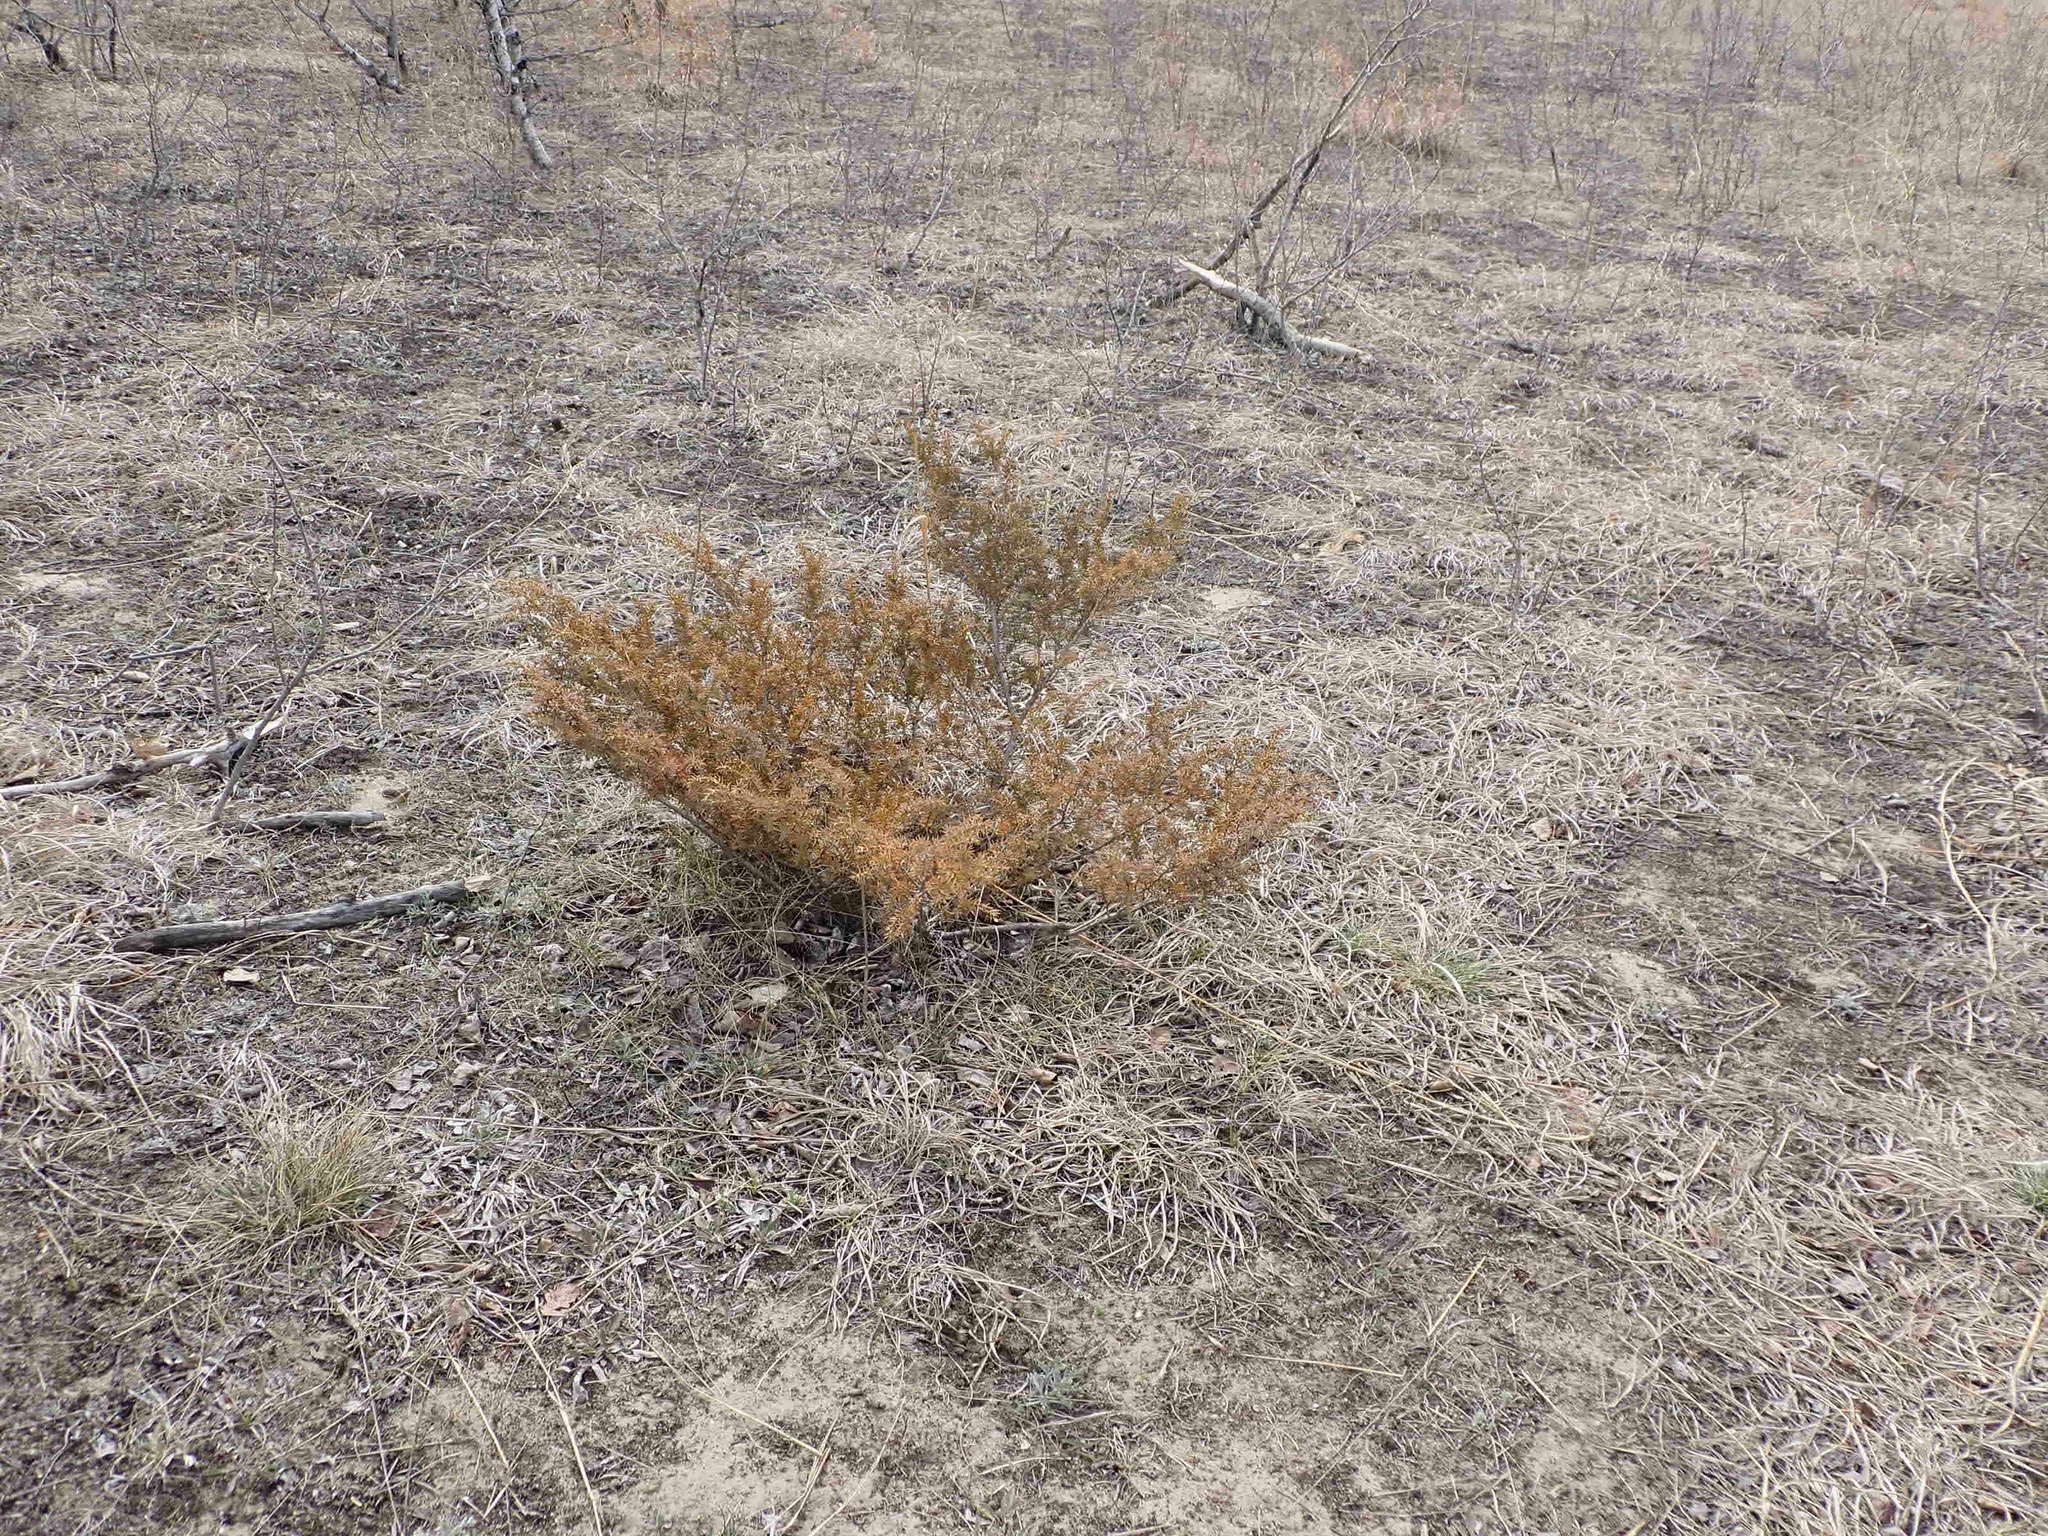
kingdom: Plantae
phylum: Tracheophyta
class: Pinopsida
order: Pinales
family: Cupressaceae
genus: Juniperus
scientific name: Juniperus communis
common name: Common juniper
